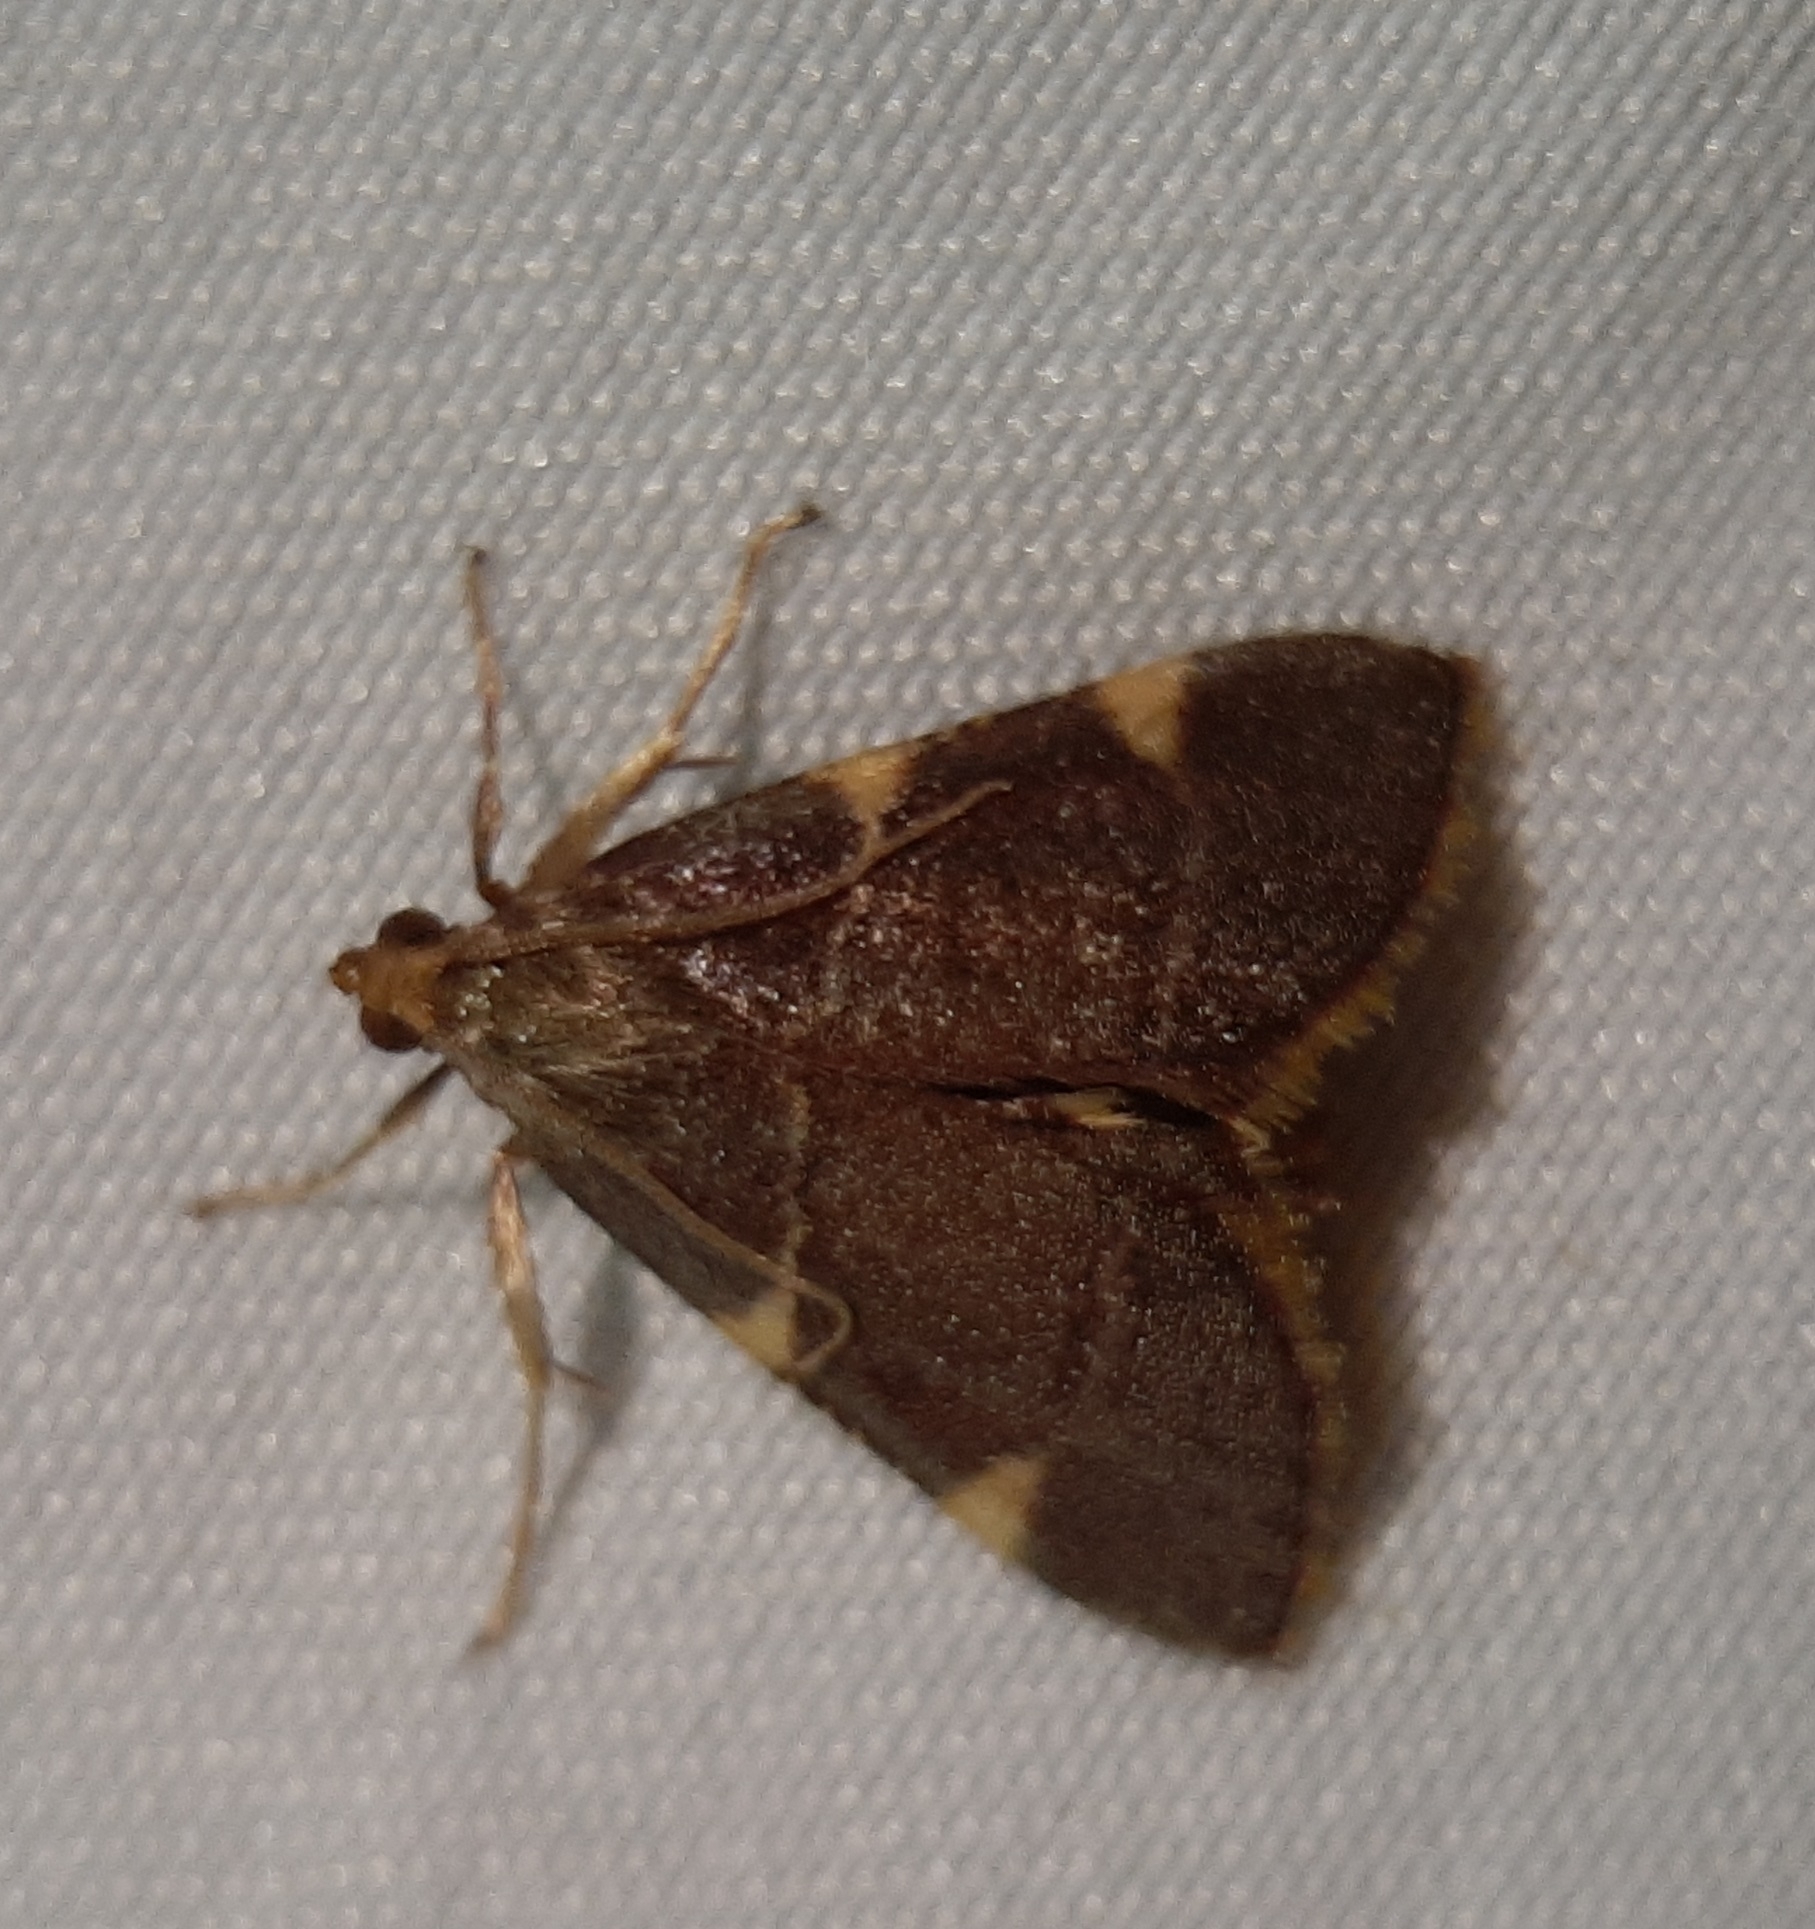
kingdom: Animalia
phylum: Arthropoda
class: Insecta
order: Lepidoptera
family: Pyralidae
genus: Hypsopygia
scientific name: Hypsopygia olinalis
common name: Yellow-fringed dolichomia moth
